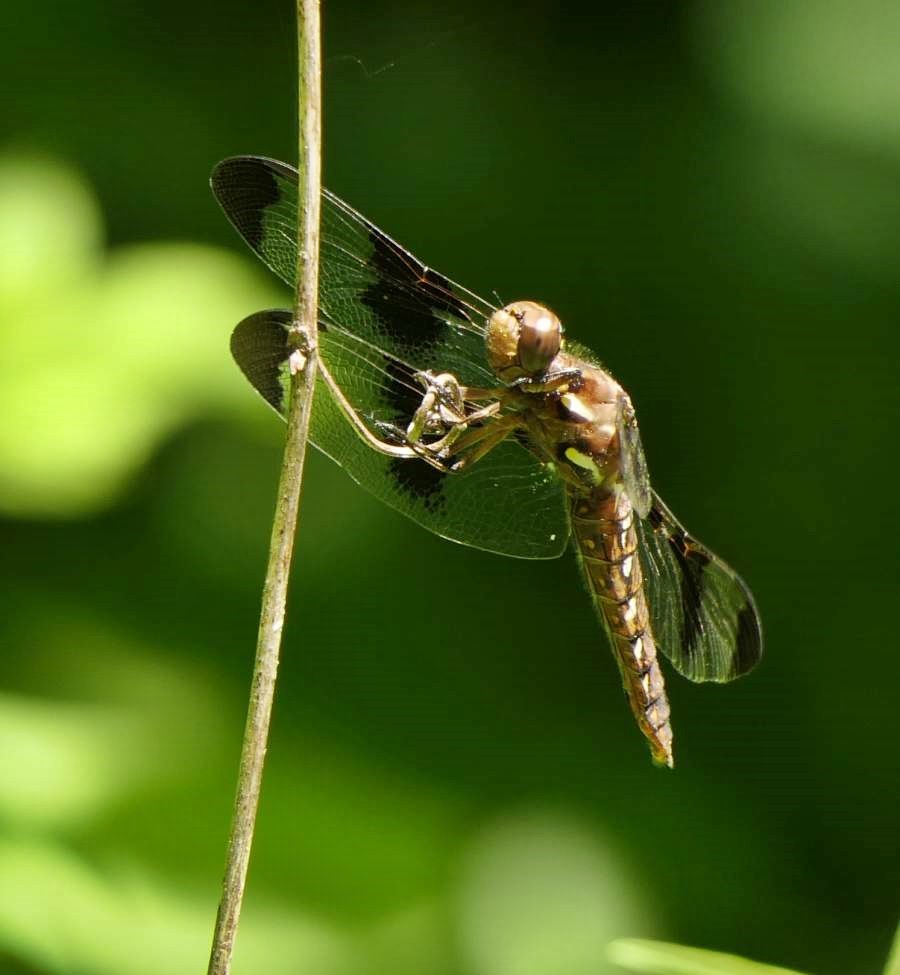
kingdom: Animalia
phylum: Arthropoda
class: Insecta
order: Odonata
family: Libellulidae
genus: Plathemis
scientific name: Plathemis lydia
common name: Common whitetail
